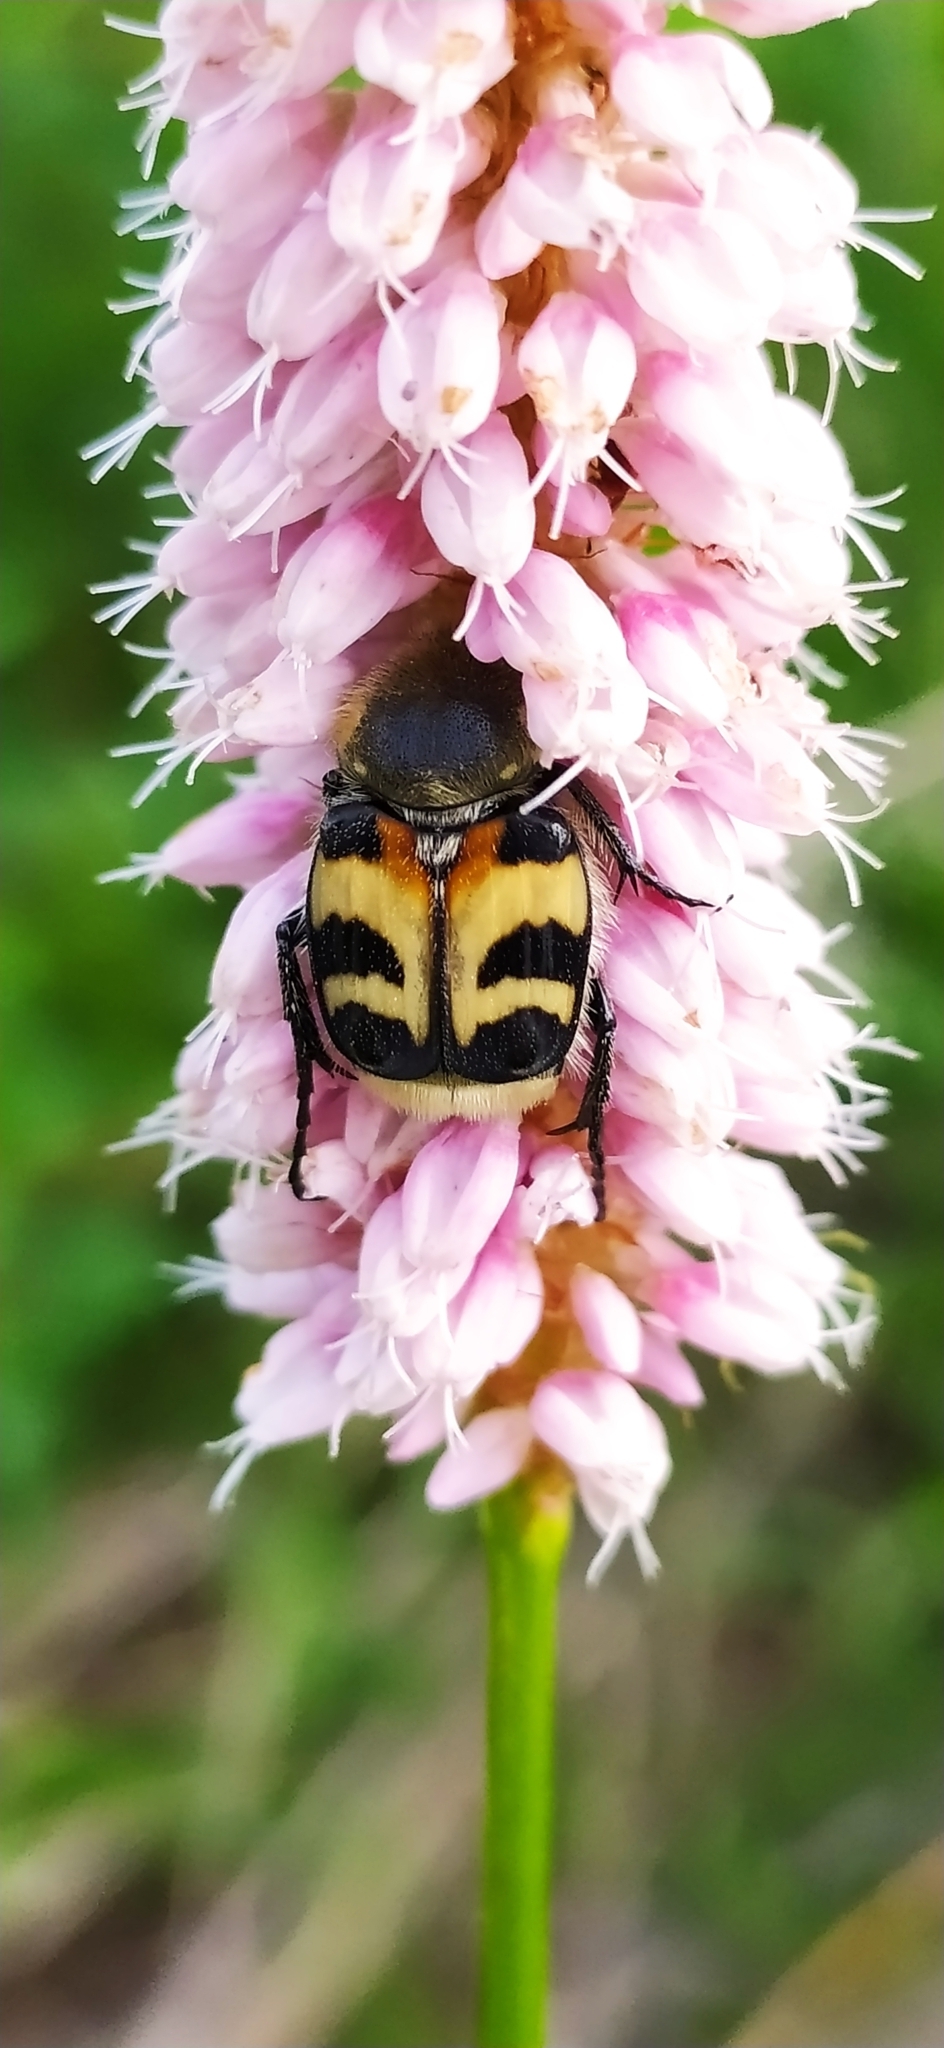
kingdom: Animalia
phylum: Arthropoda
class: Insecta
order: Coleoptera
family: Scarabaeidae
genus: Trichius
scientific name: Trichius fasciatus
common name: Bee beetle
